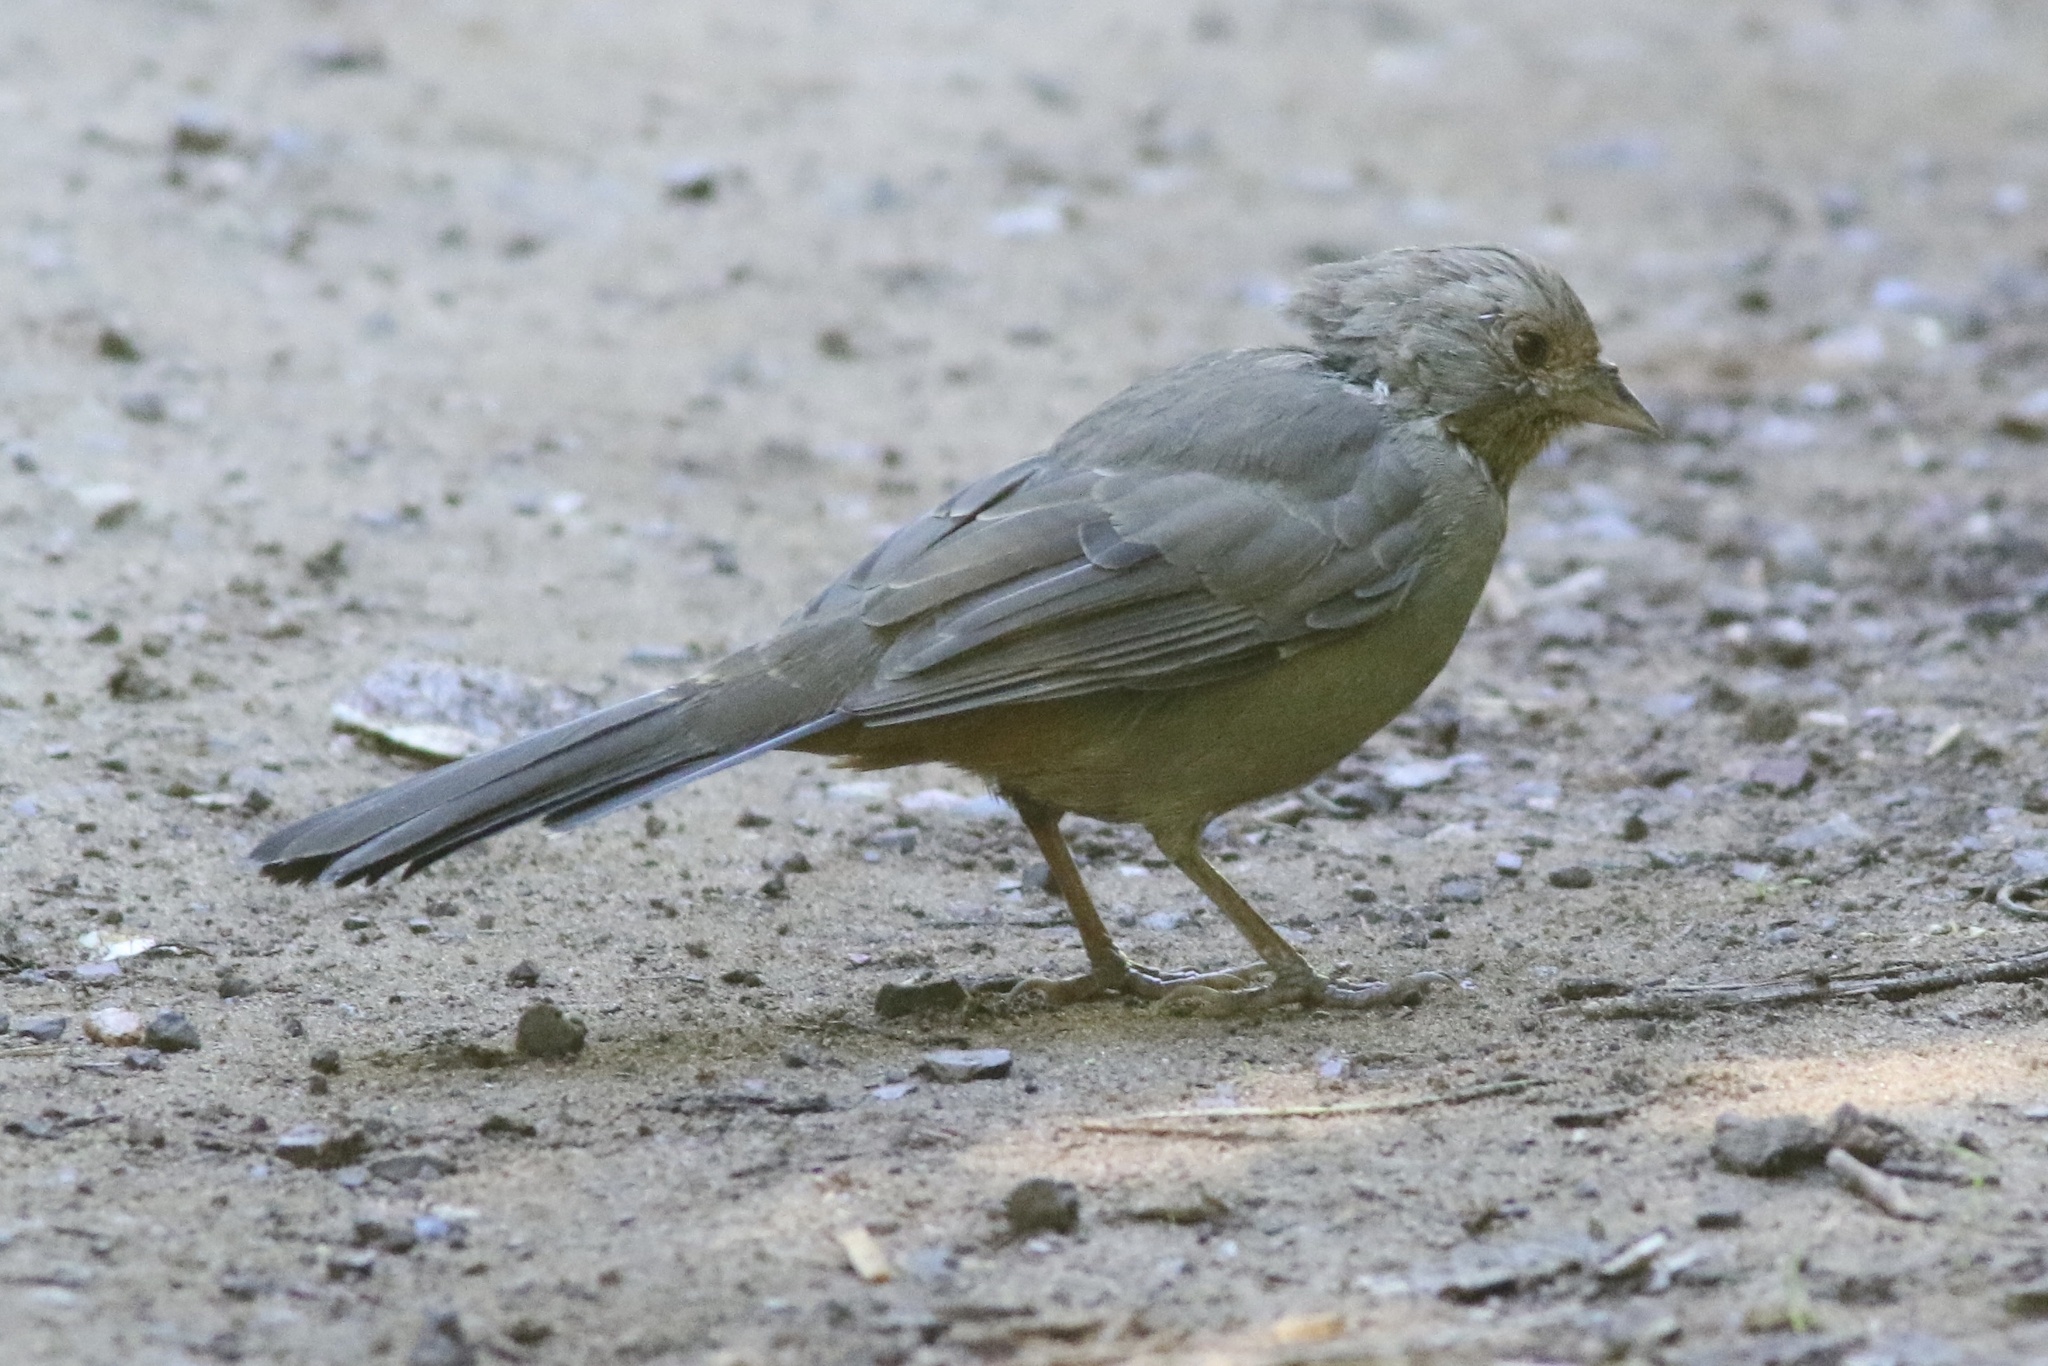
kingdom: Animalia
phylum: Chordata
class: Aves
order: Passeriformes
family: Passerellidae
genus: Melozone
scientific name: Melozone crissalis
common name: California towhee
